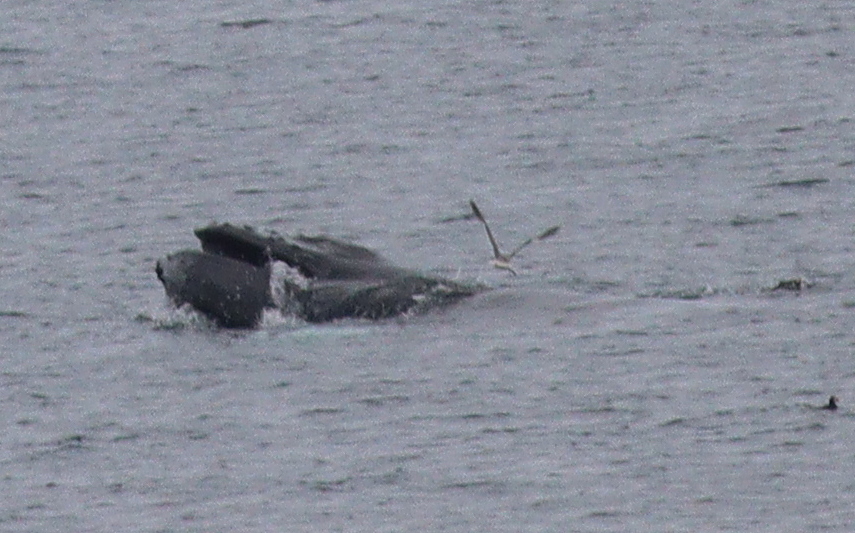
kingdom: Animalia
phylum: Chordata
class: Mammalia
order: Cetacea
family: Balaenopteridae
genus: Megaptera
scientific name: Megaptera novaeangliae
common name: Humpback whale
